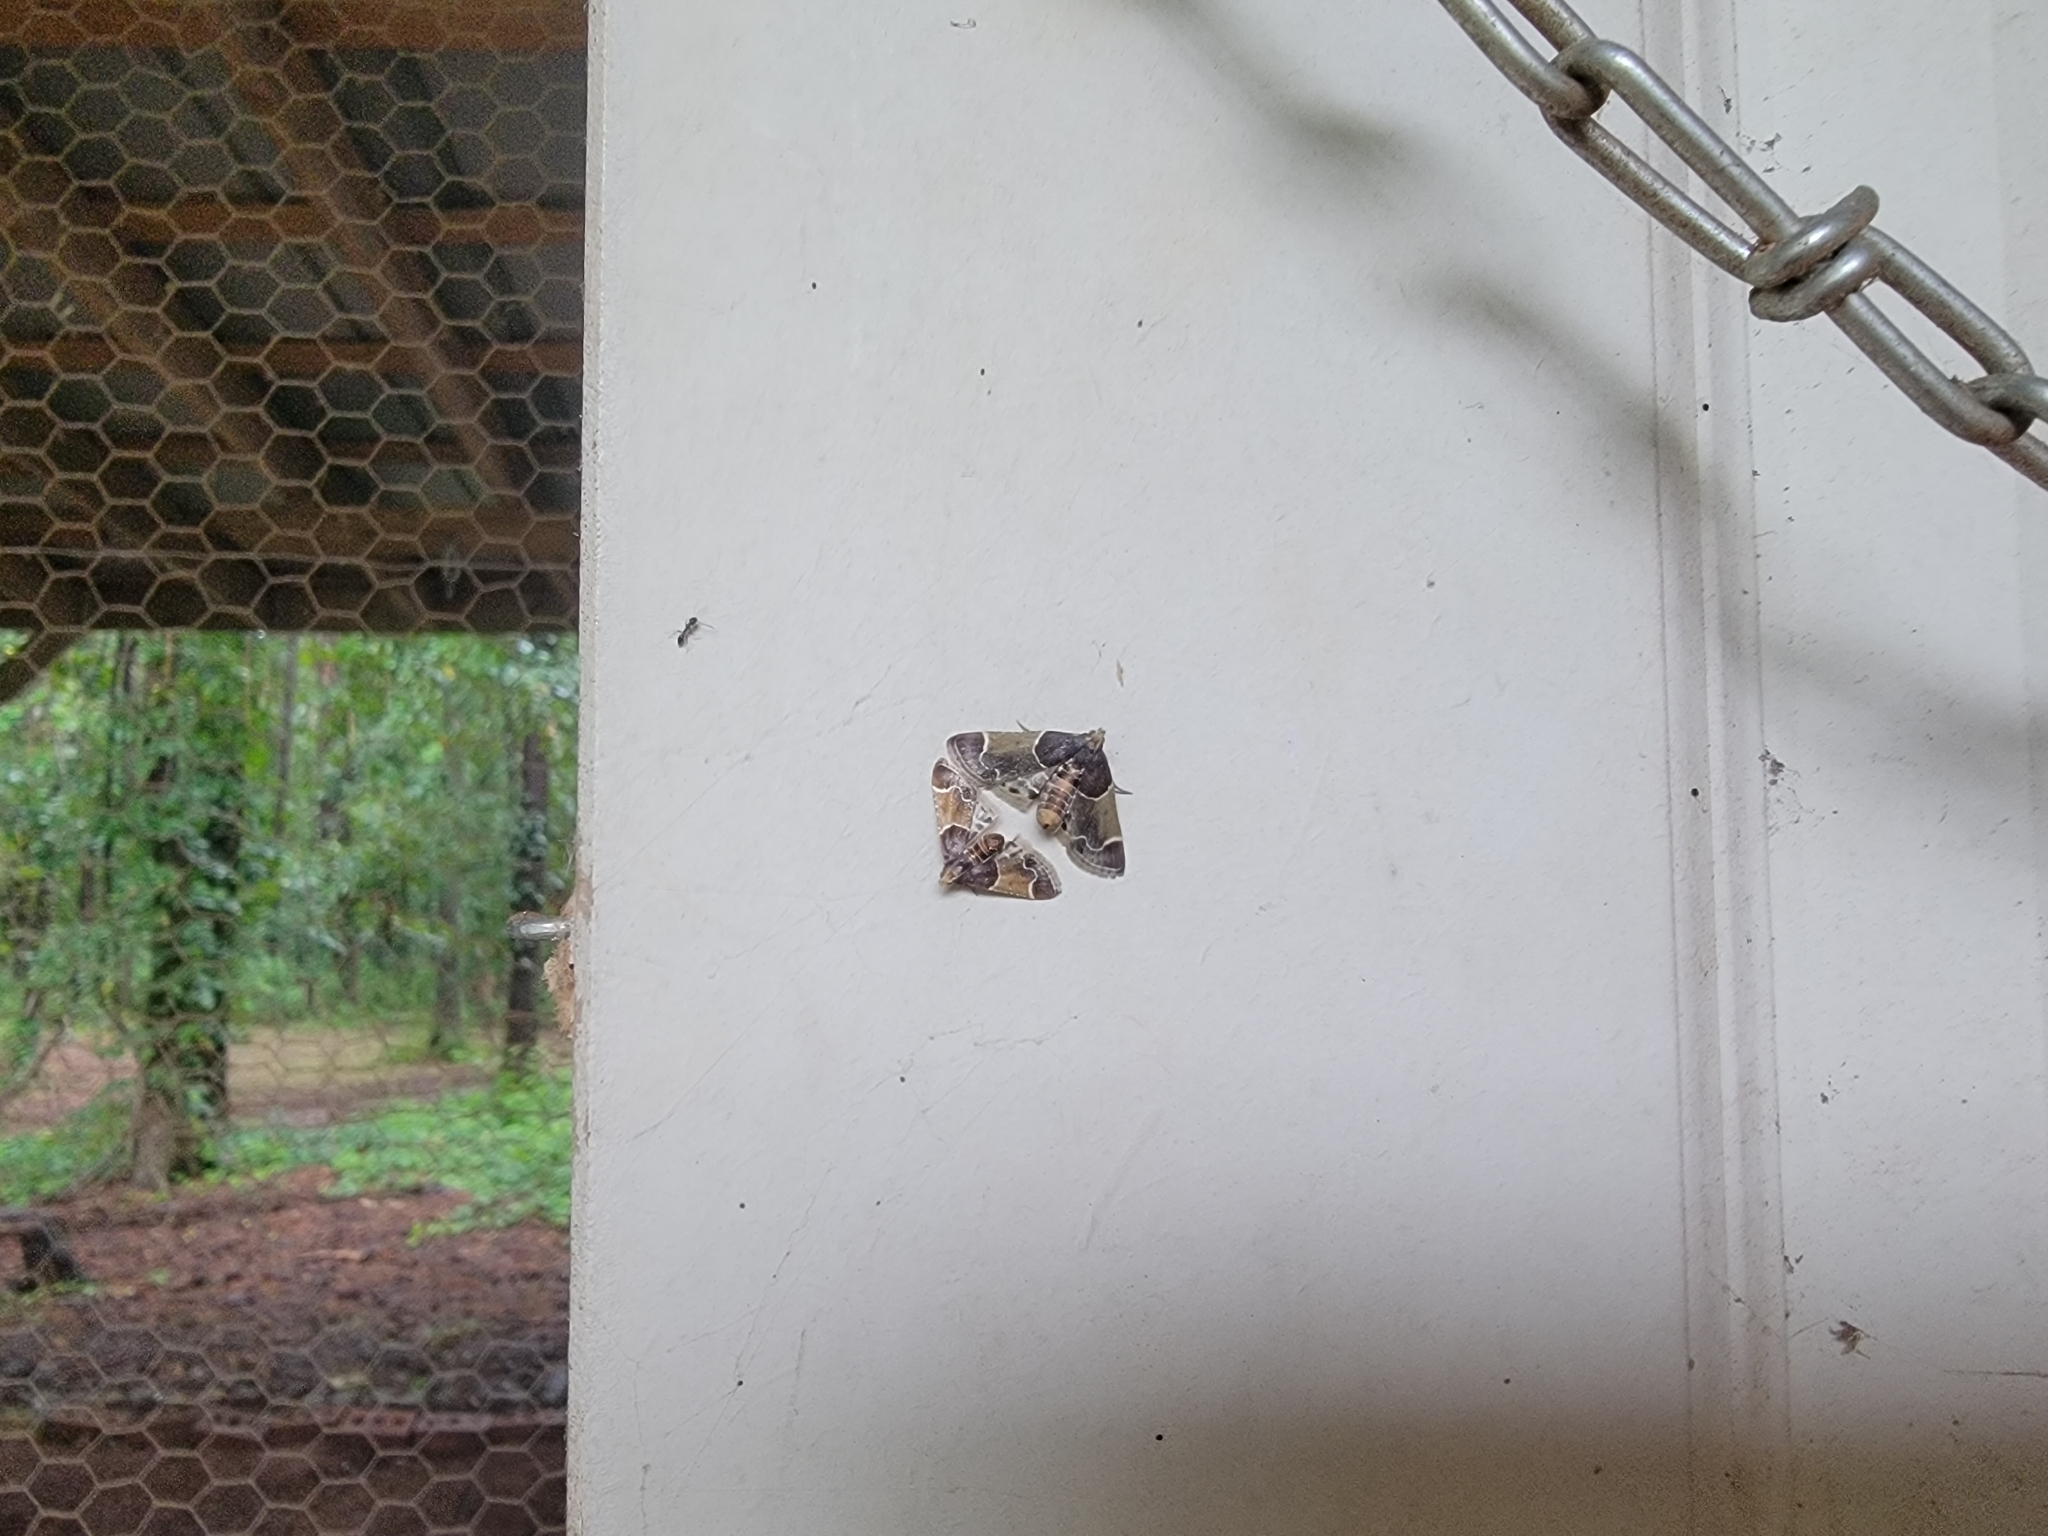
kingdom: Animalia
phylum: Arthropoda
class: Insecta
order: Lepidoptera
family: Pyralidae
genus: Pyralis
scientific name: Pyralis farinalis
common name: Meal moth
